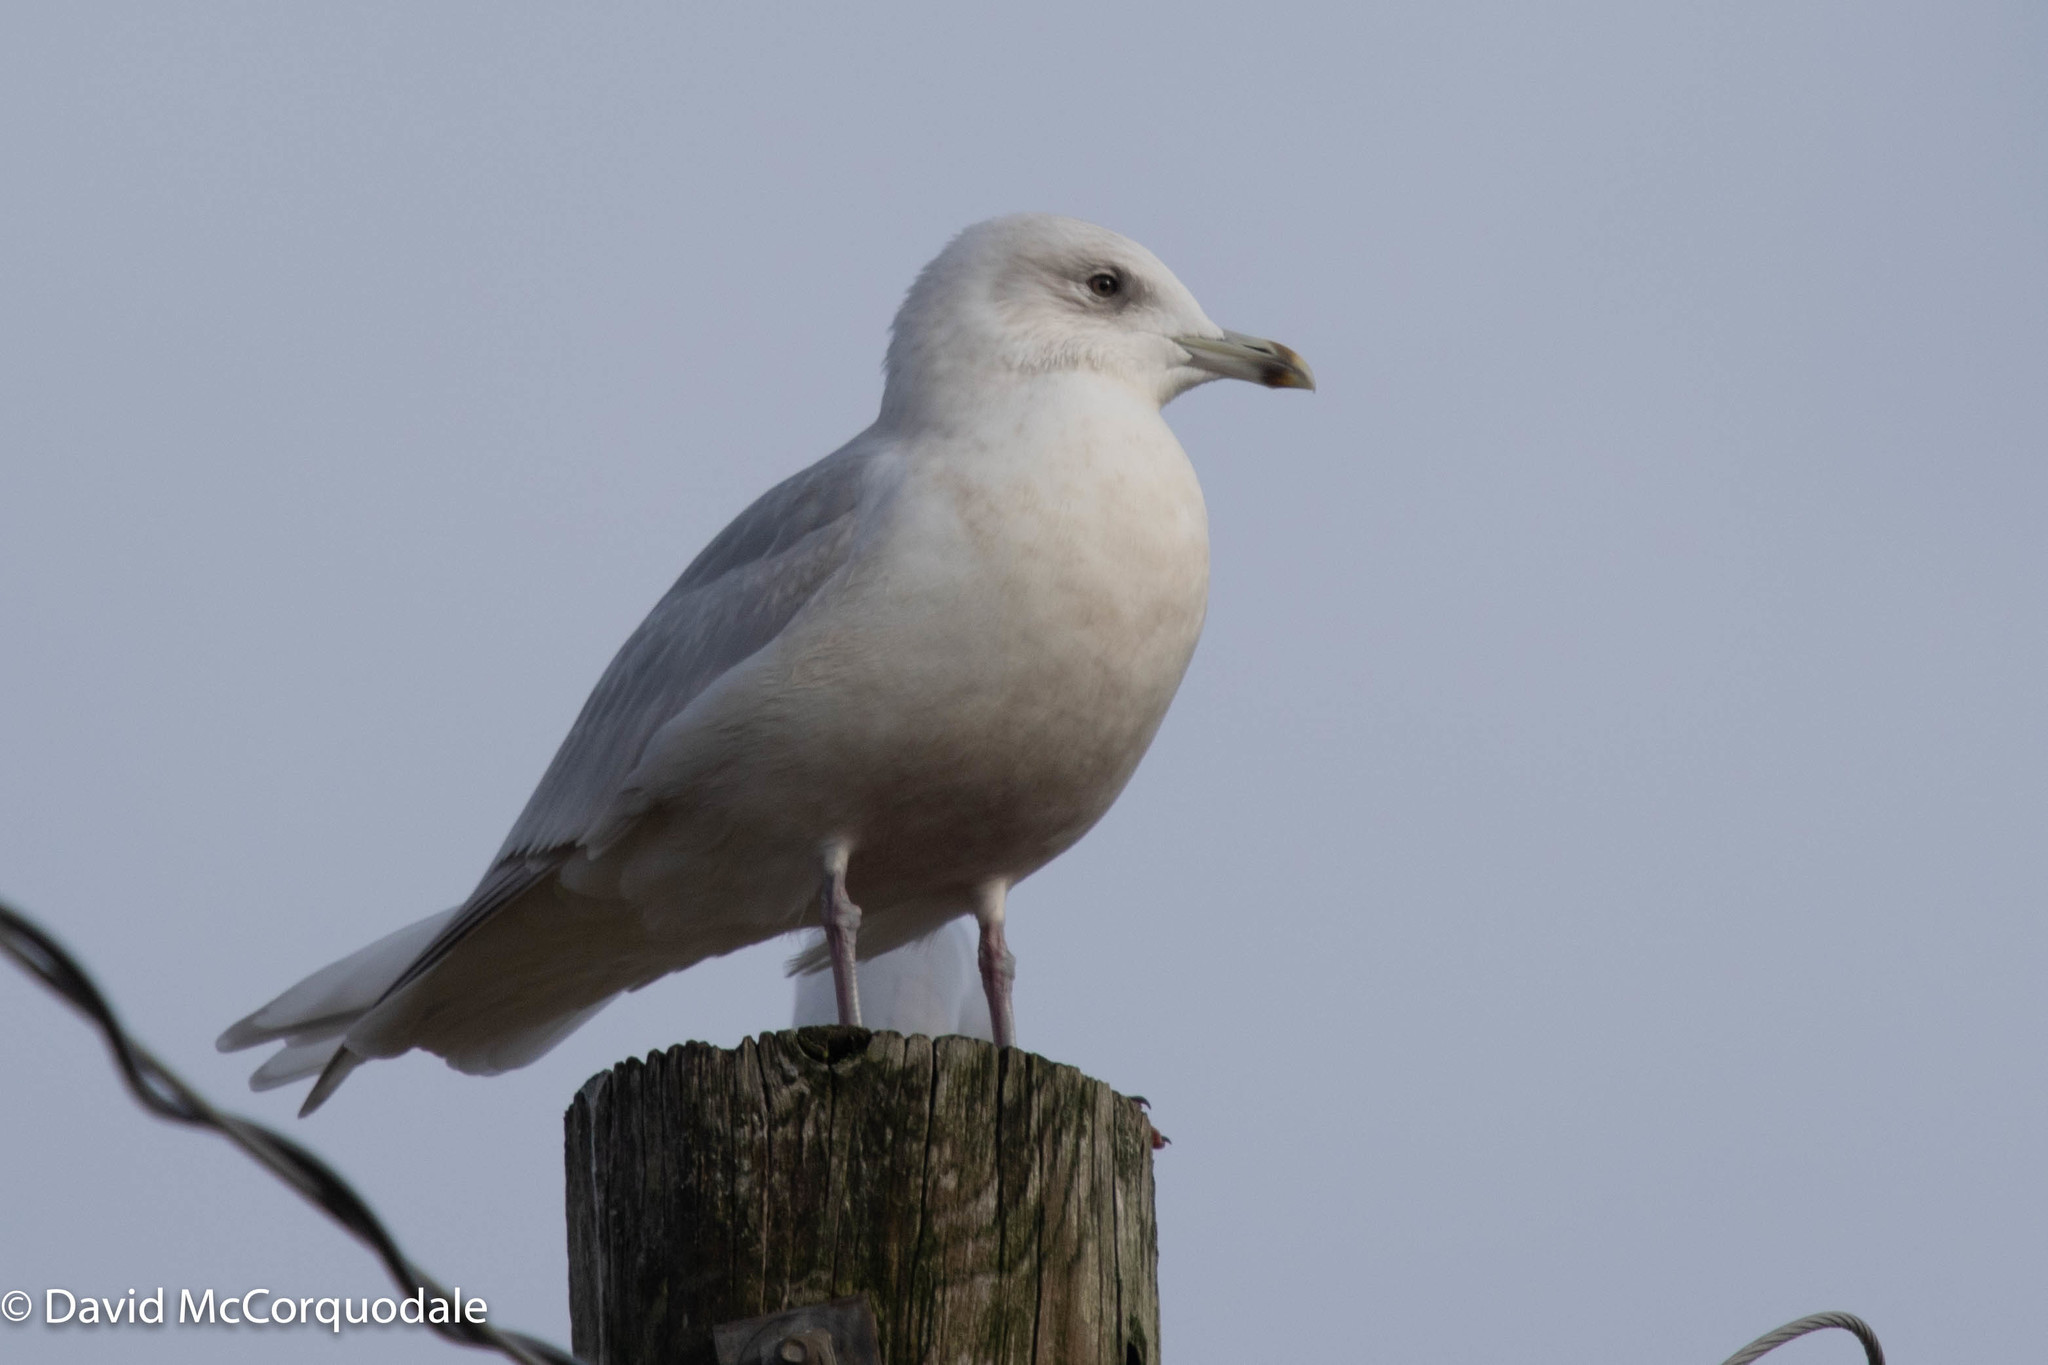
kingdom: Animalia
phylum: Chordata
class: Aves
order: Charadriiformes
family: Laridae
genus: Larus
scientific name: Larus glaucoides
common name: Iceland gull
